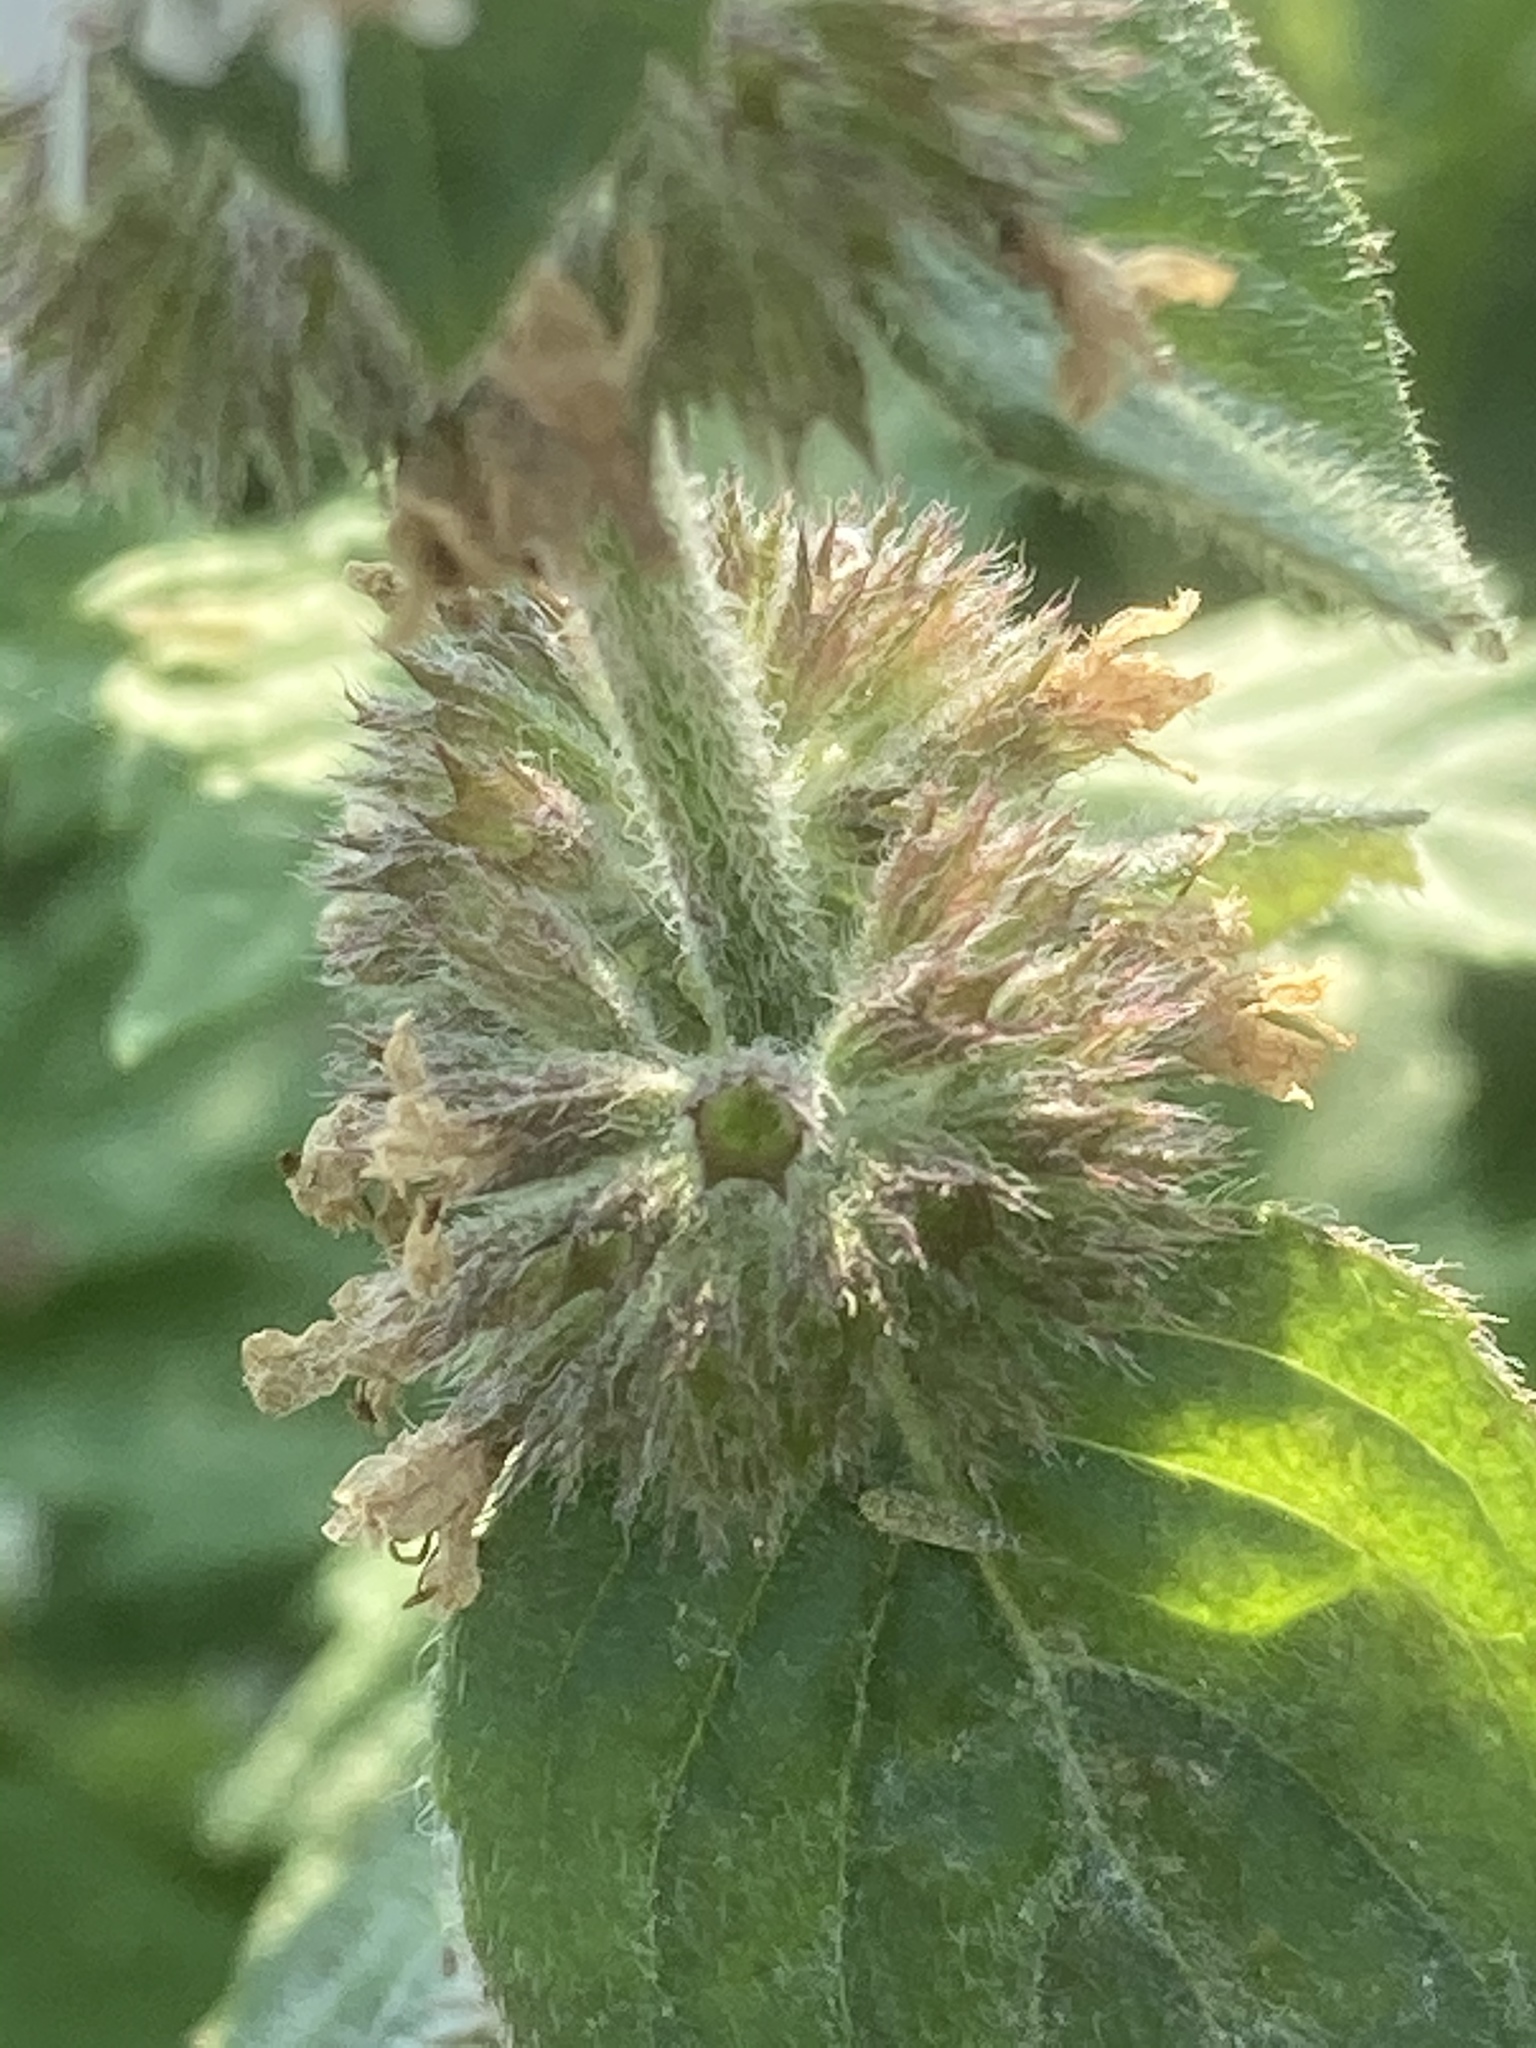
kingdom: Plantae
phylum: Tracheophyta
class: Magnoliopsida
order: Lamiales
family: Lamiaceae
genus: Mentha
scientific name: Mentha longifolia
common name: Horse mint
